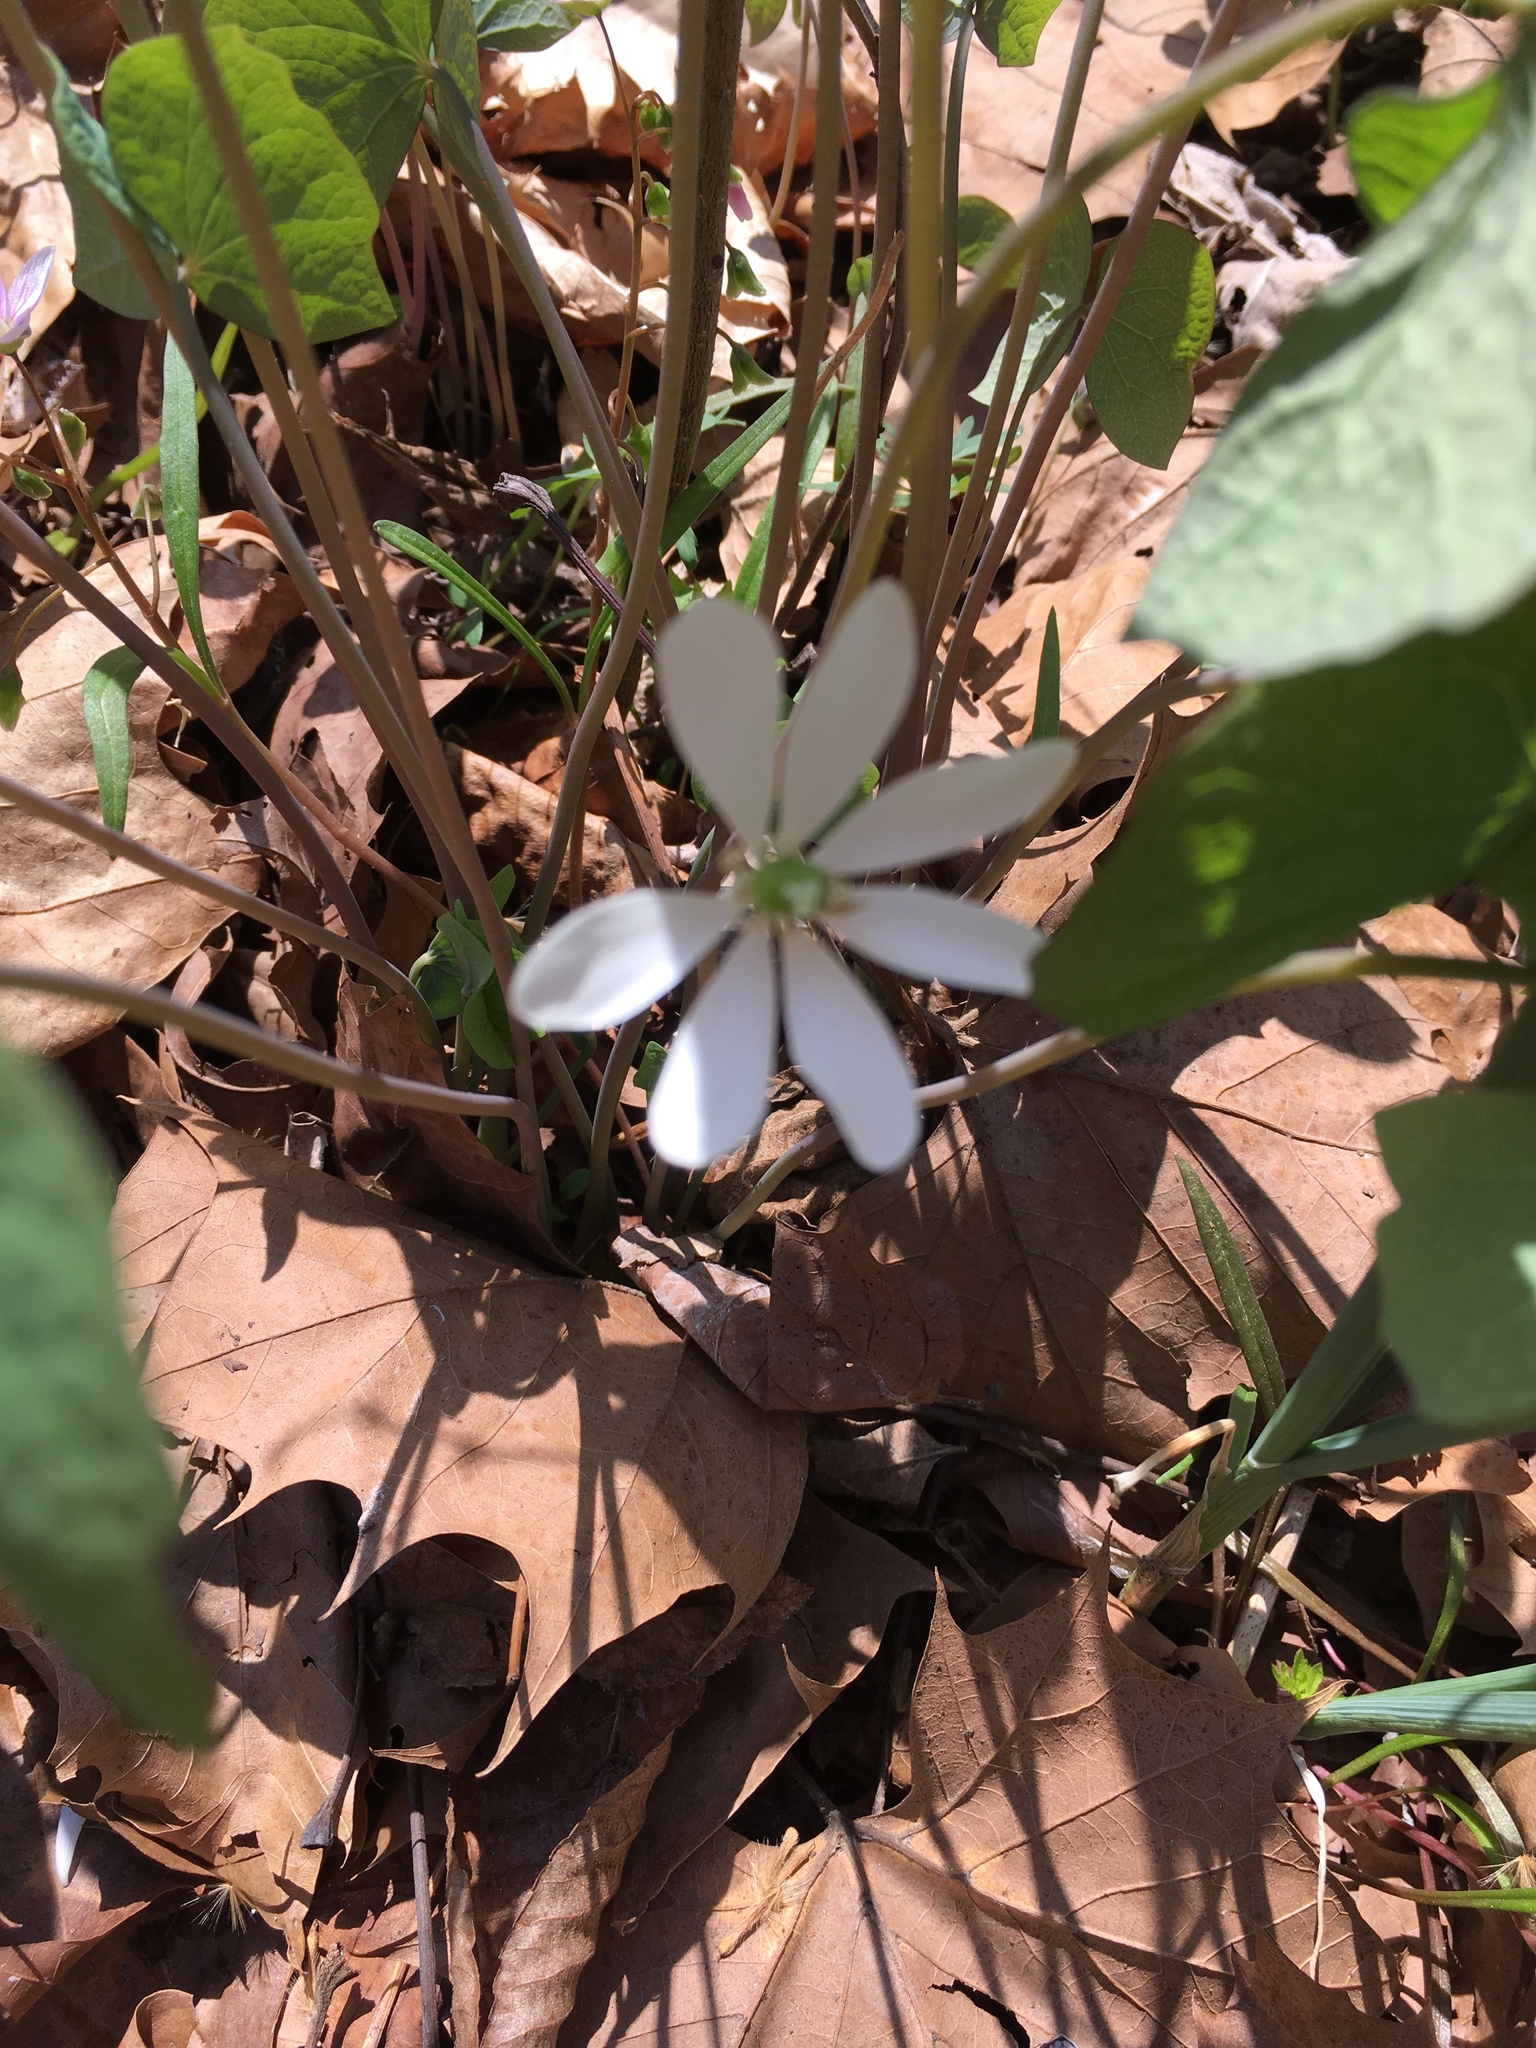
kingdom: Plantae
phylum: Tracheophyta
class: Magnoliopsida
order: Ranunculales
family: Berberidaceae
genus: Jeffersonia
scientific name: Jeffersonia diphylla
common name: Rheumatism-root
